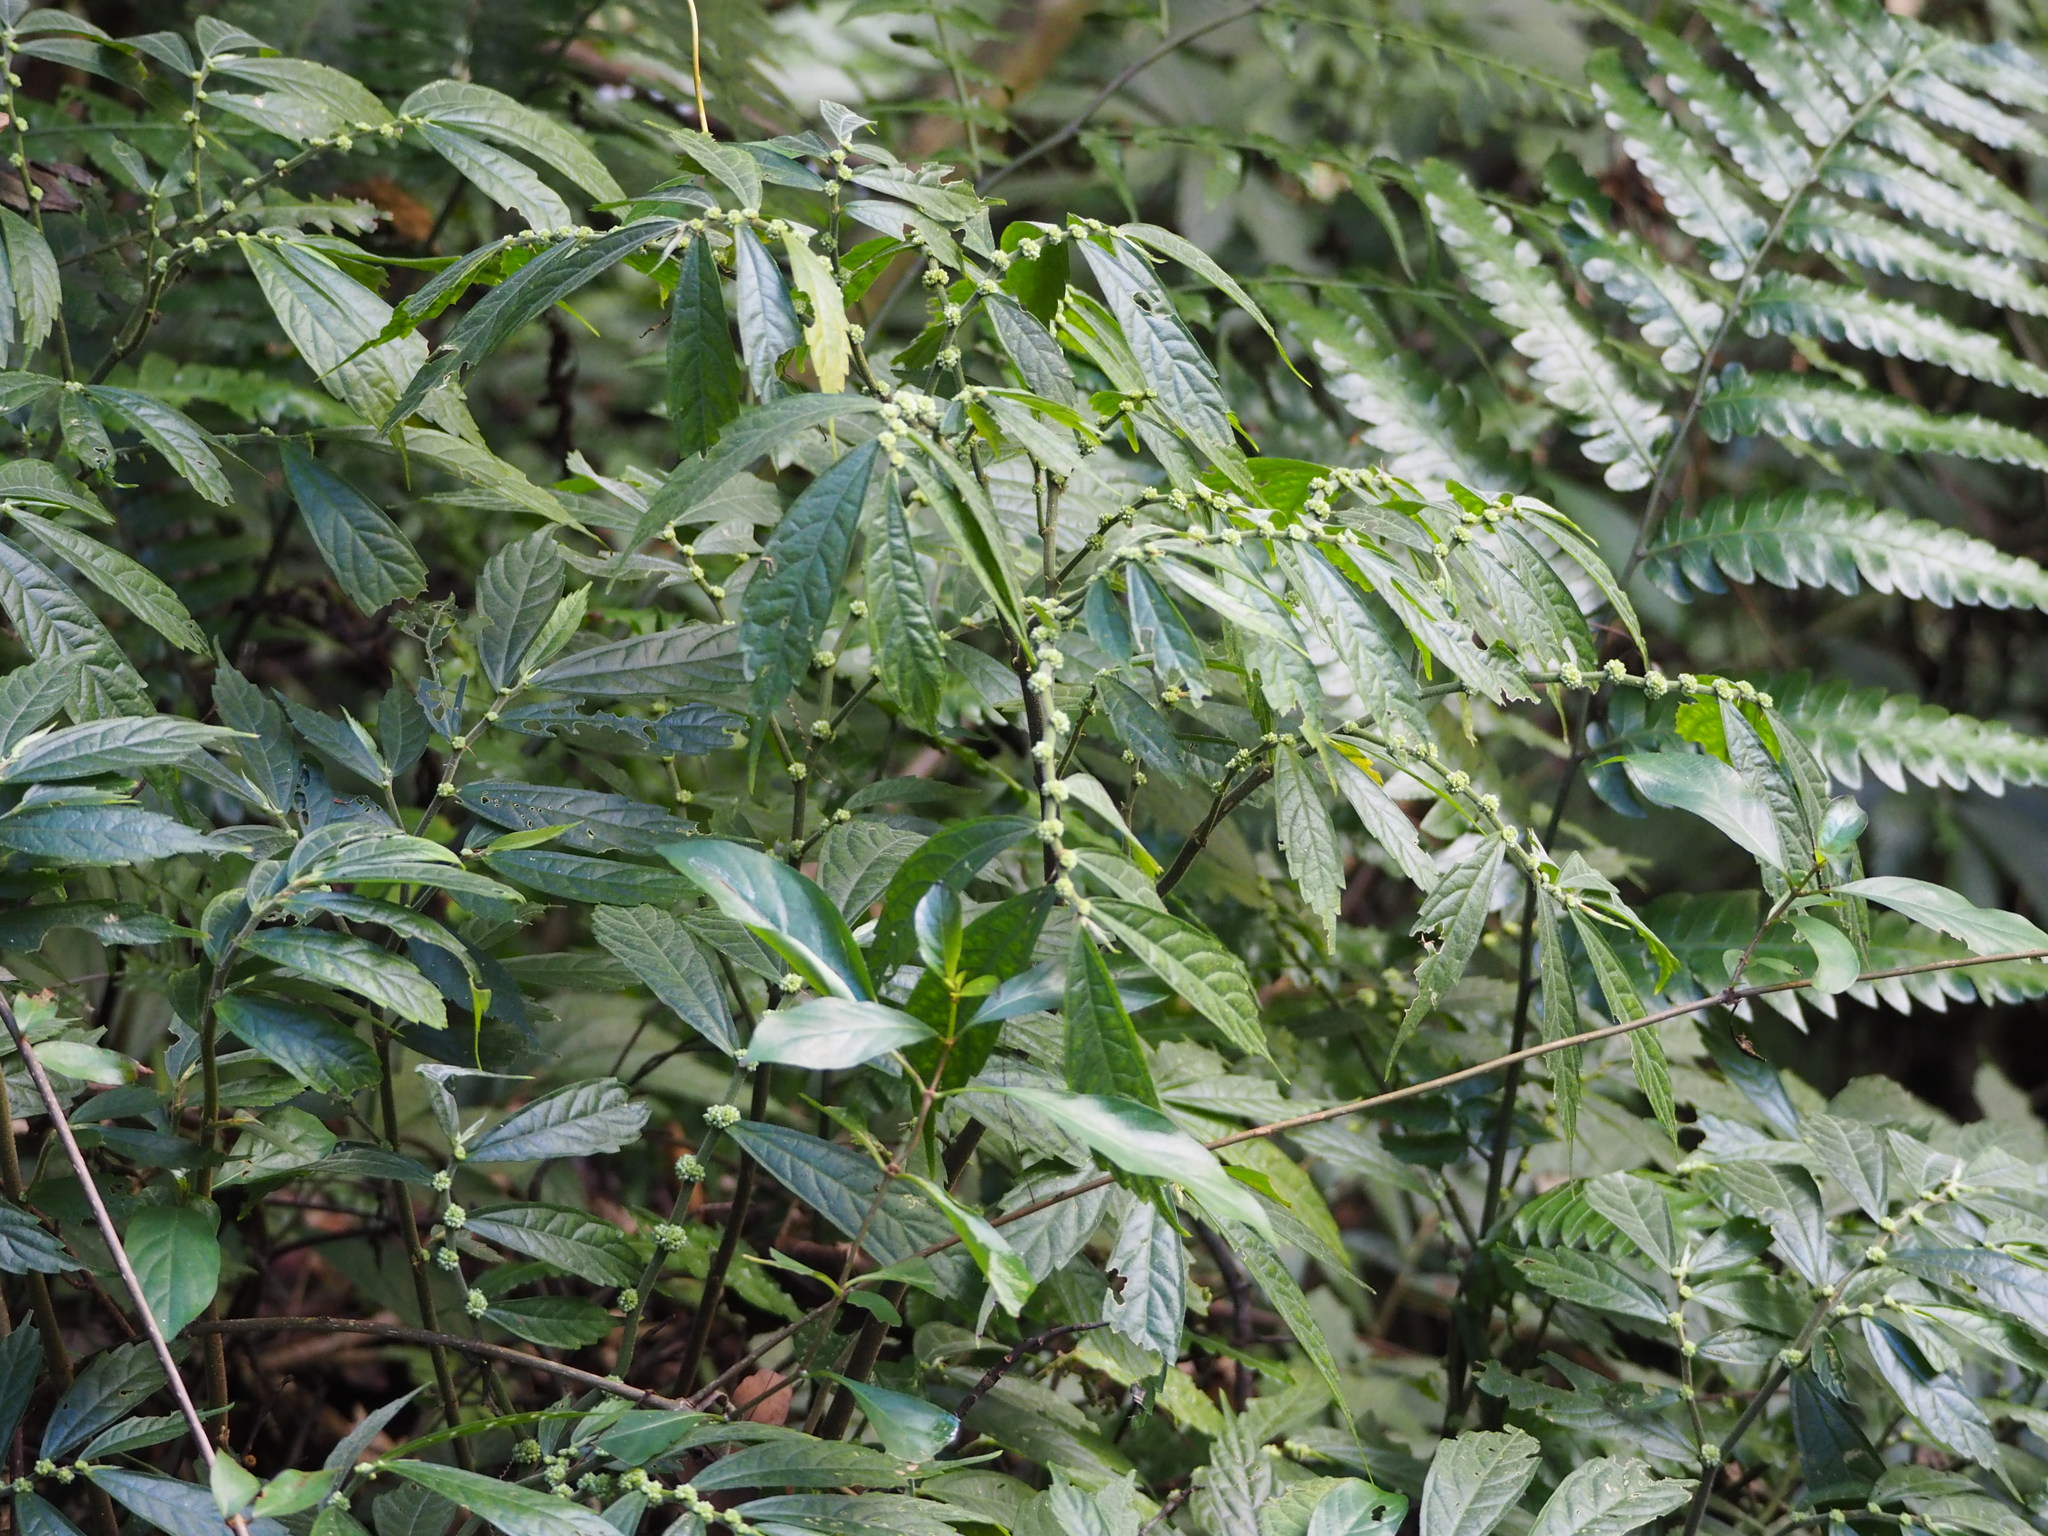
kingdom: Plantae
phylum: Tracheophyta
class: Magnoliopsida
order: Rosales
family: Urticaceae
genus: Elatostema
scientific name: Elatostema lineolatum
